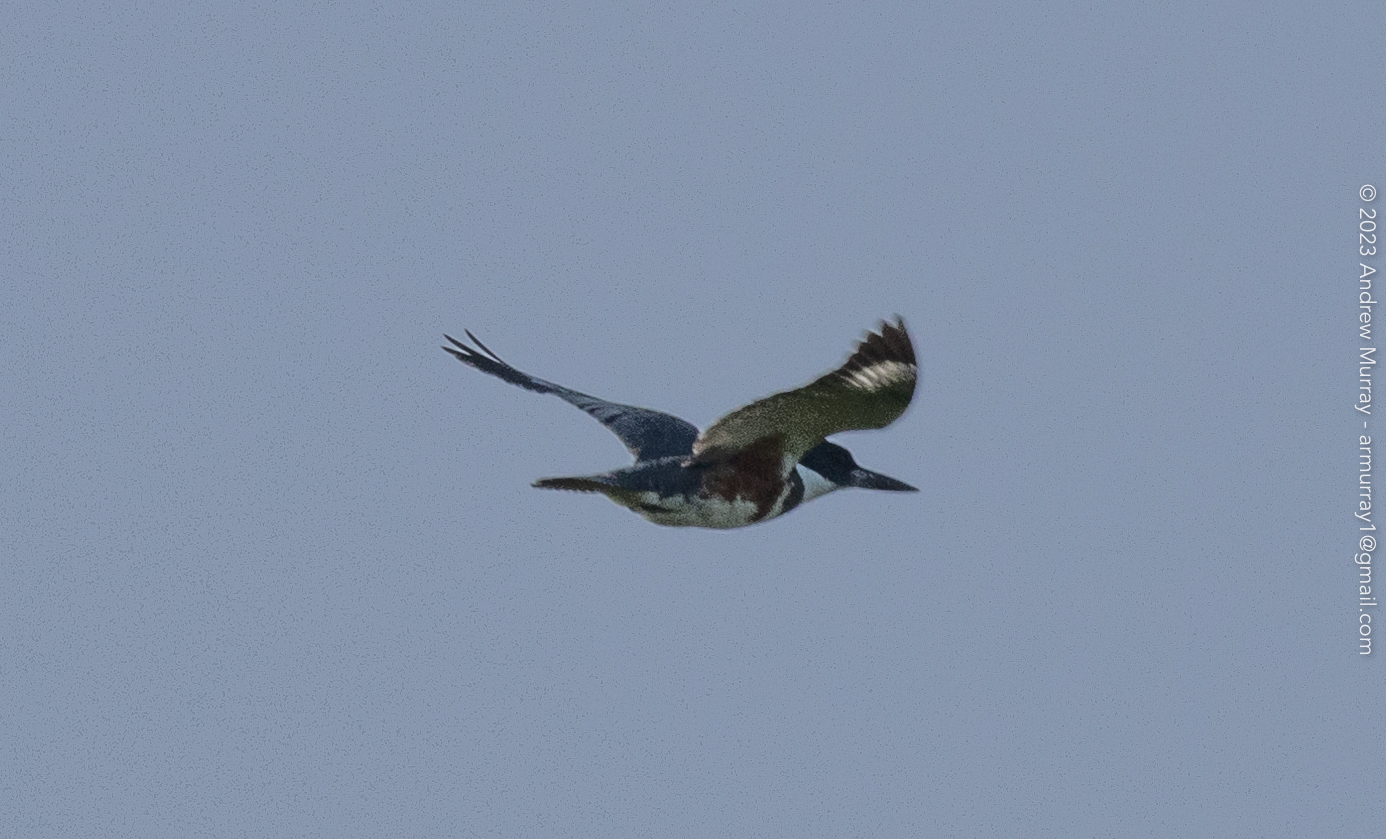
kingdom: Animalia
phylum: Chordata
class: Aves
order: Coraciiformes
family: Alcedinidae
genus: Megaceryle
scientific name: Megaceryle alcyon
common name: Belted kingfisher
